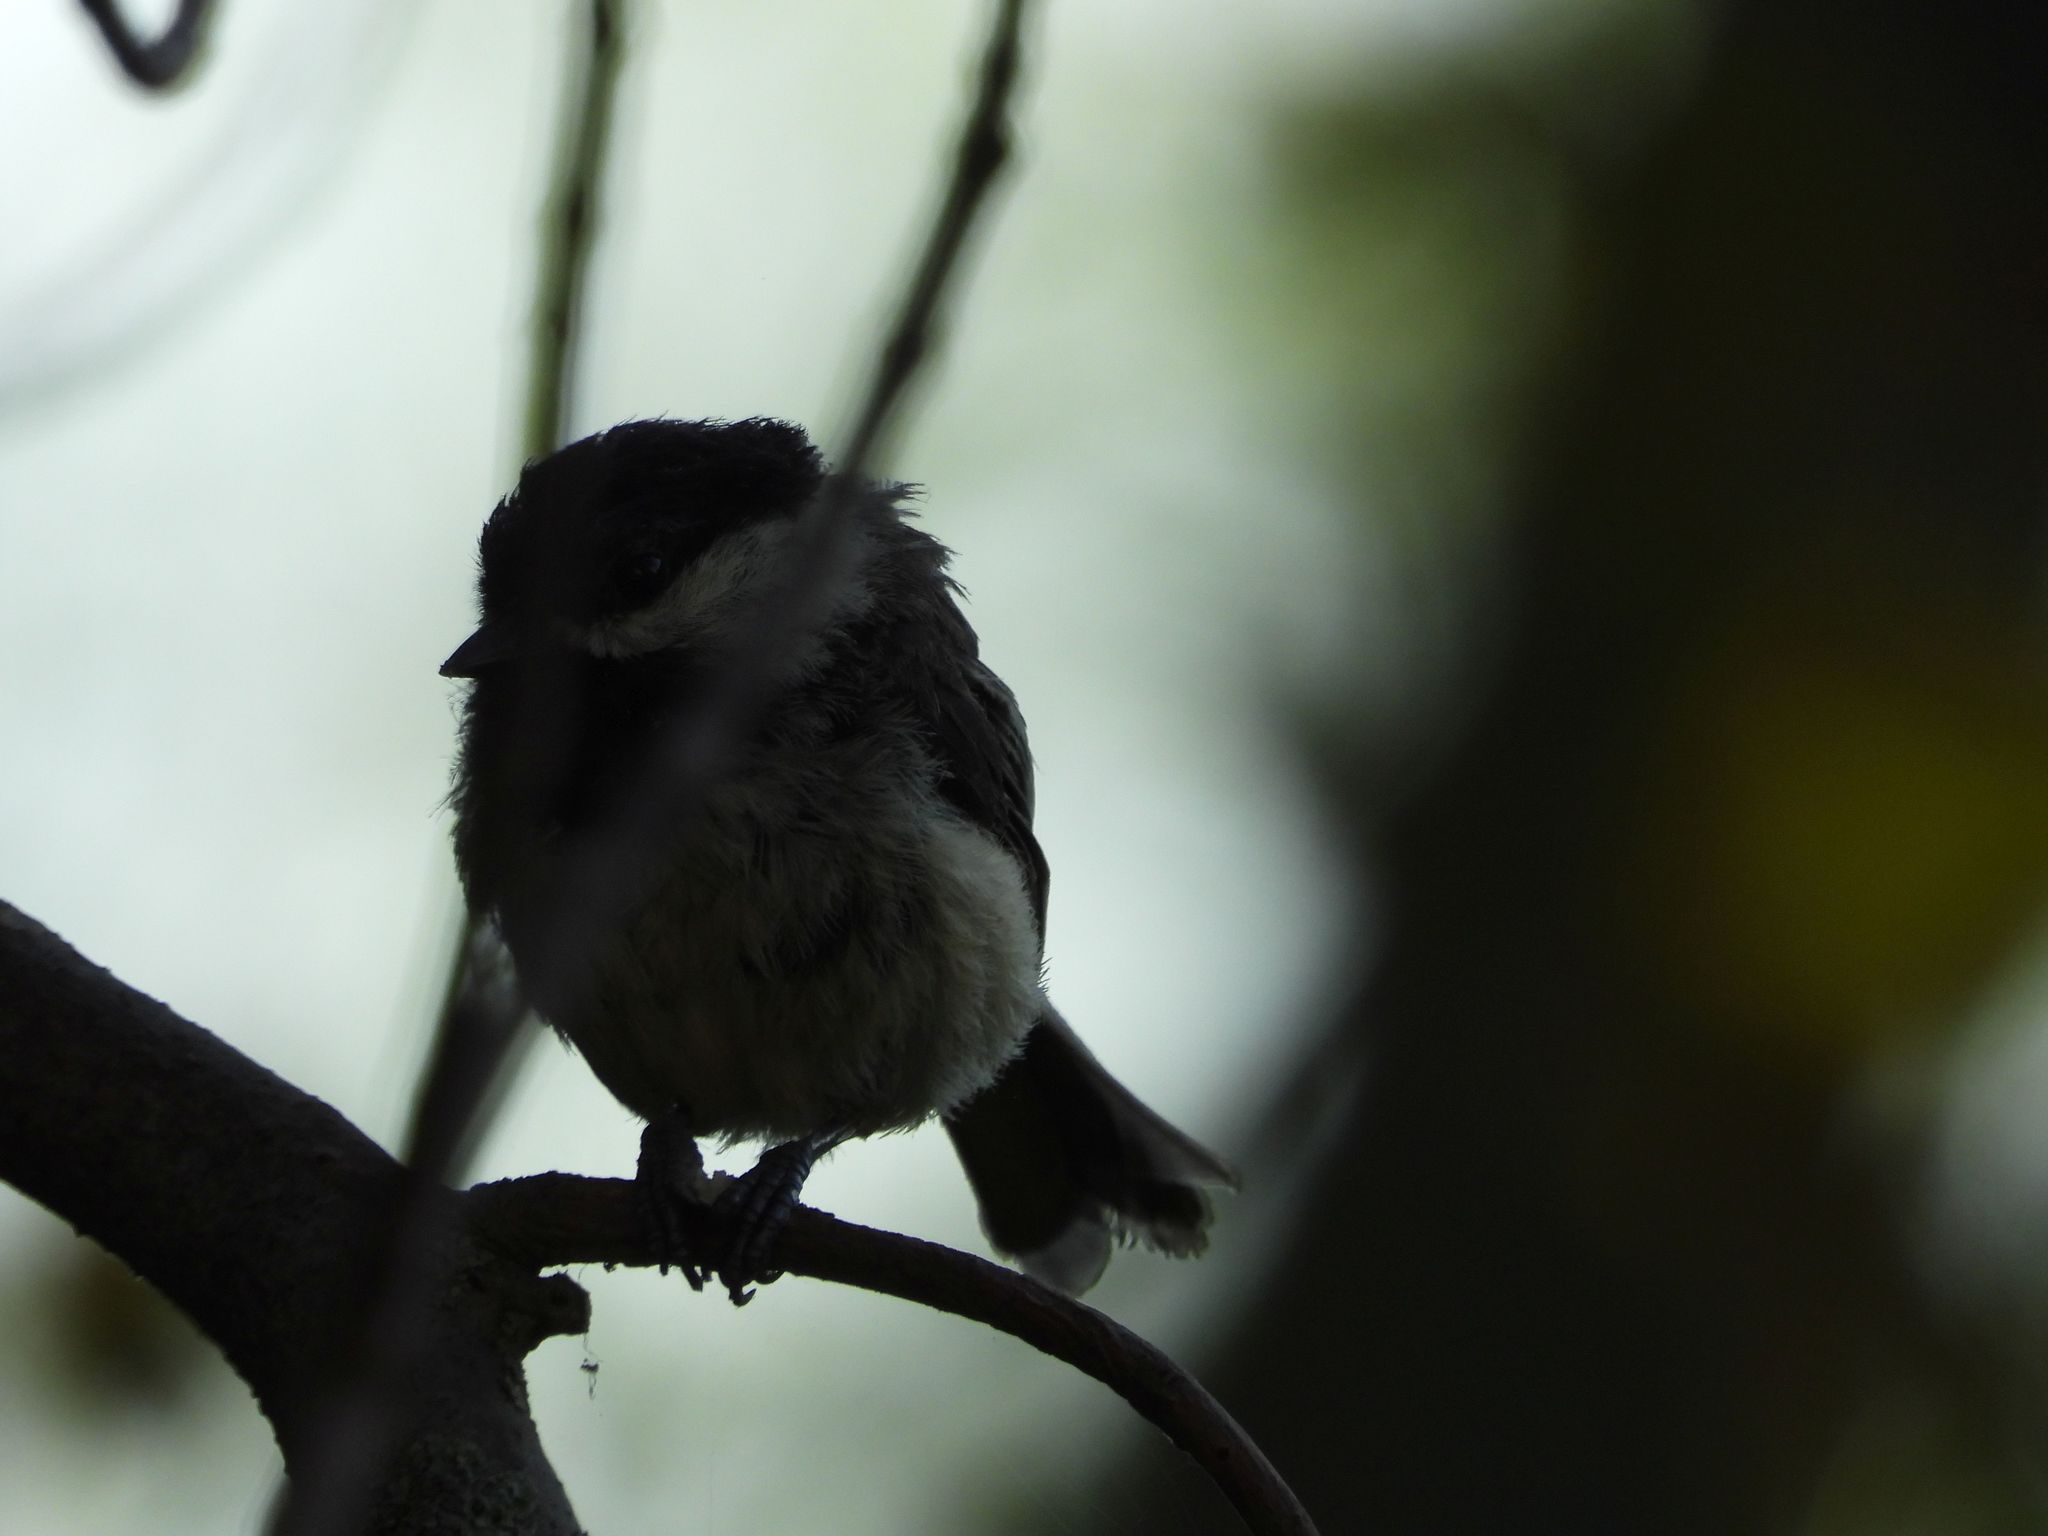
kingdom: Animalia
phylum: Chordata
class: Aves
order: Passeriformes
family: Paridae
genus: Poecile
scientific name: Poecile atricapillus
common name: Black-capped chickadee
